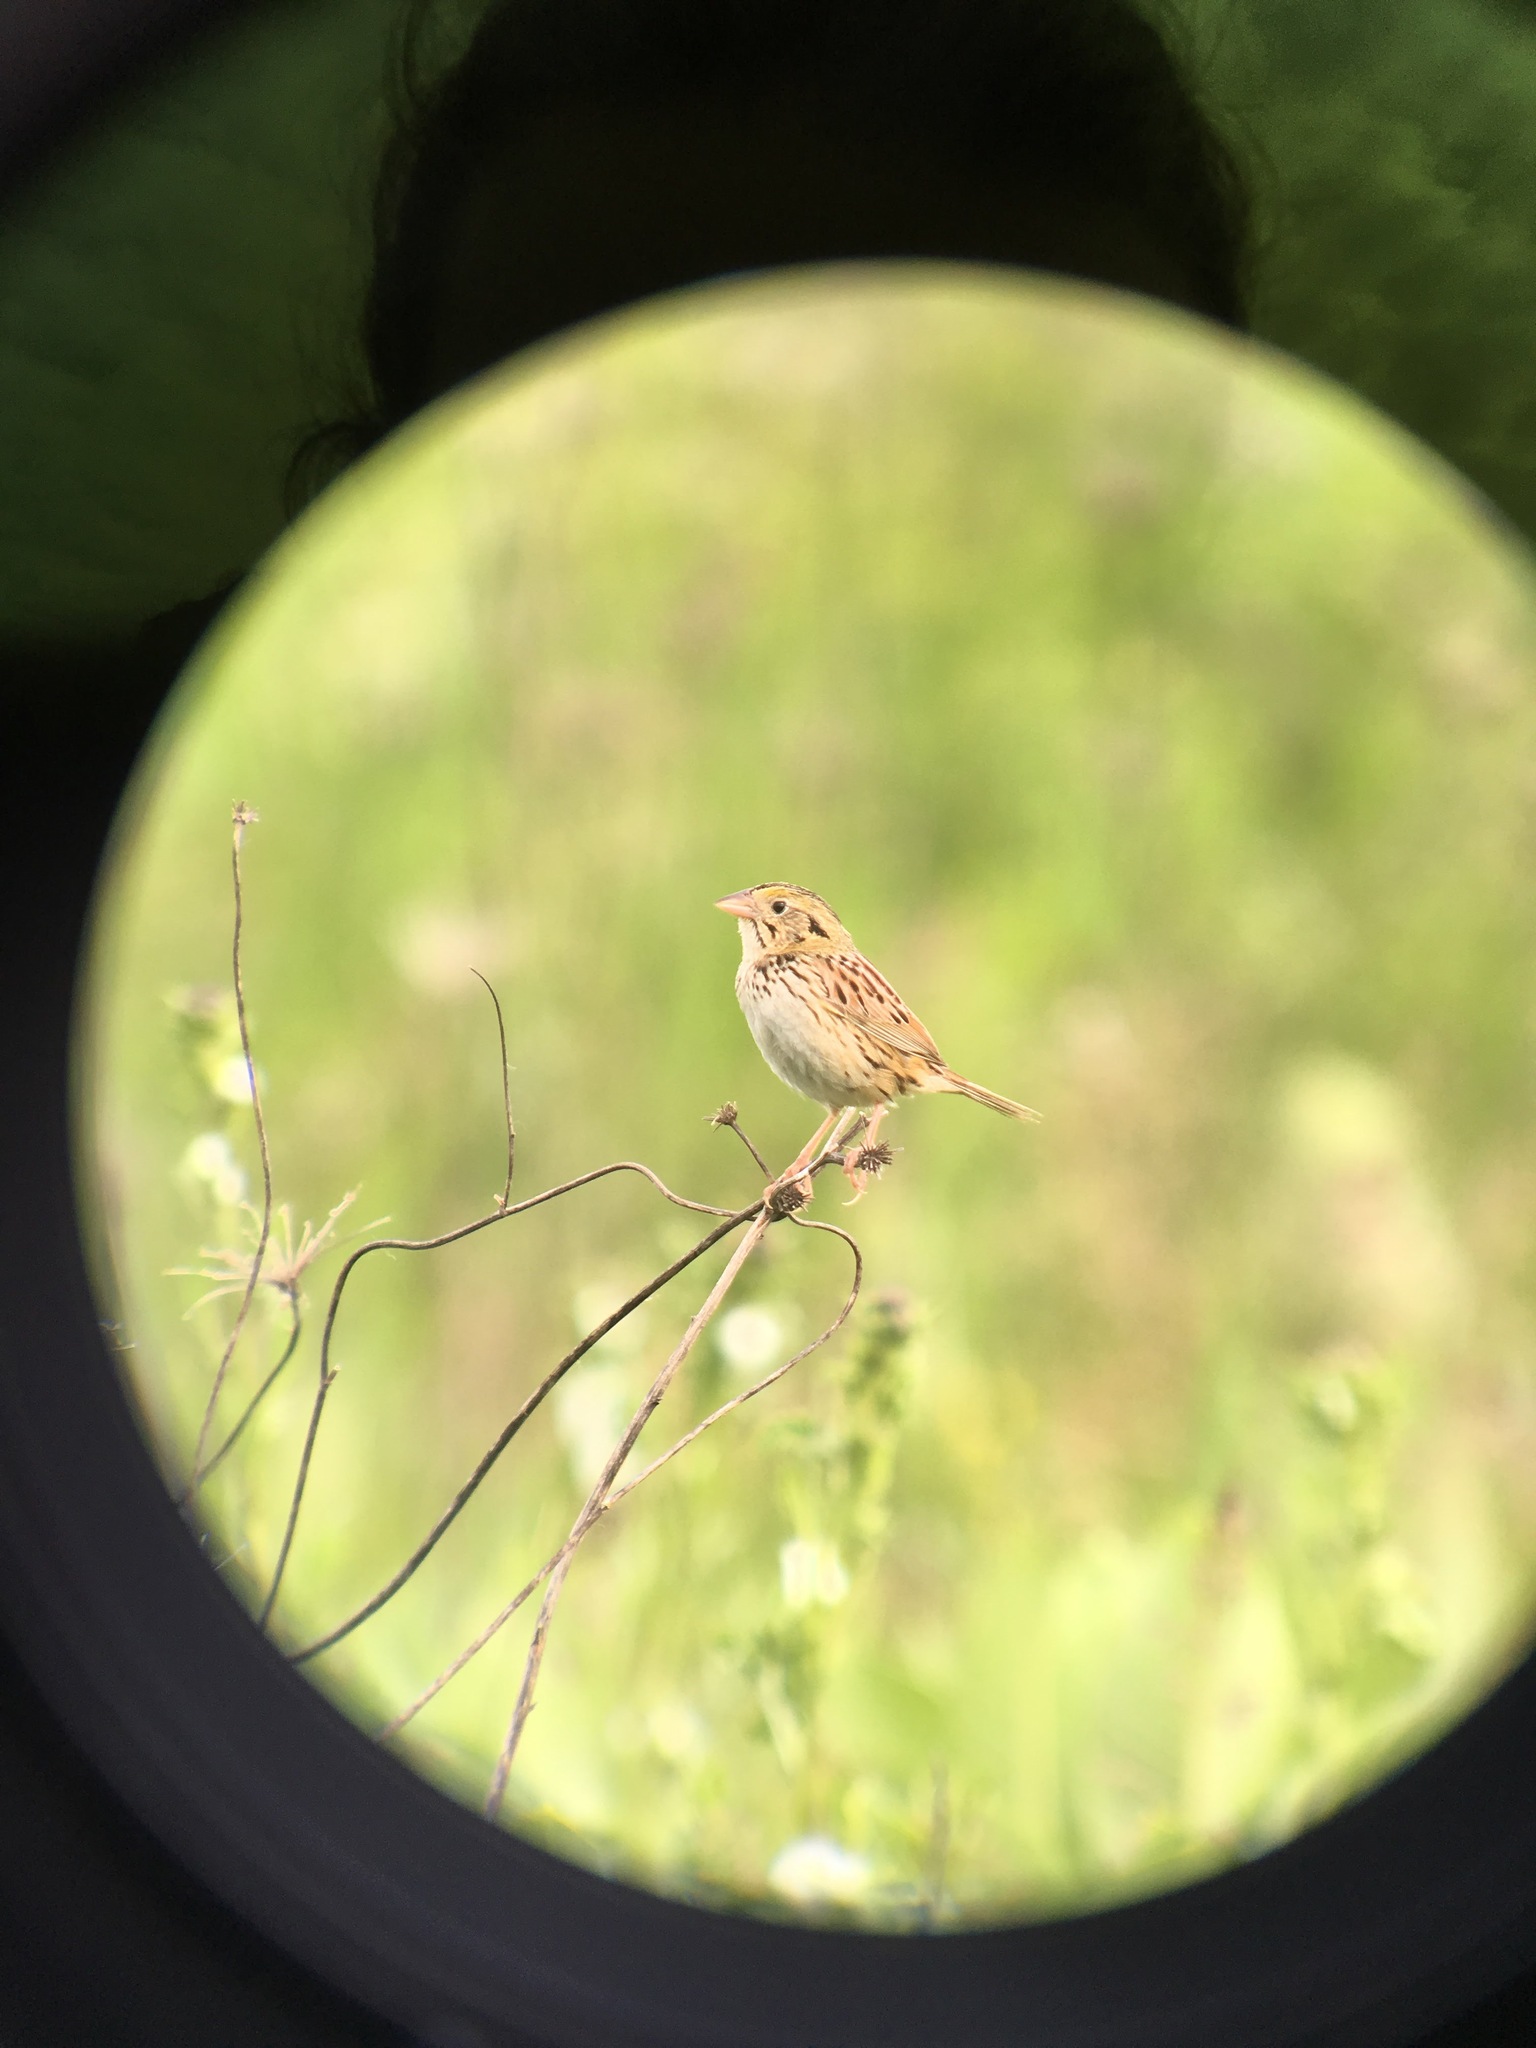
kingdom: Animalia
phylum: Chordata
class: Aves
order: Passeriformes
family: Passerellidae
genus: Centronyx
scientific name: Centronyx henslowii
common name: Henslow's sparrow
